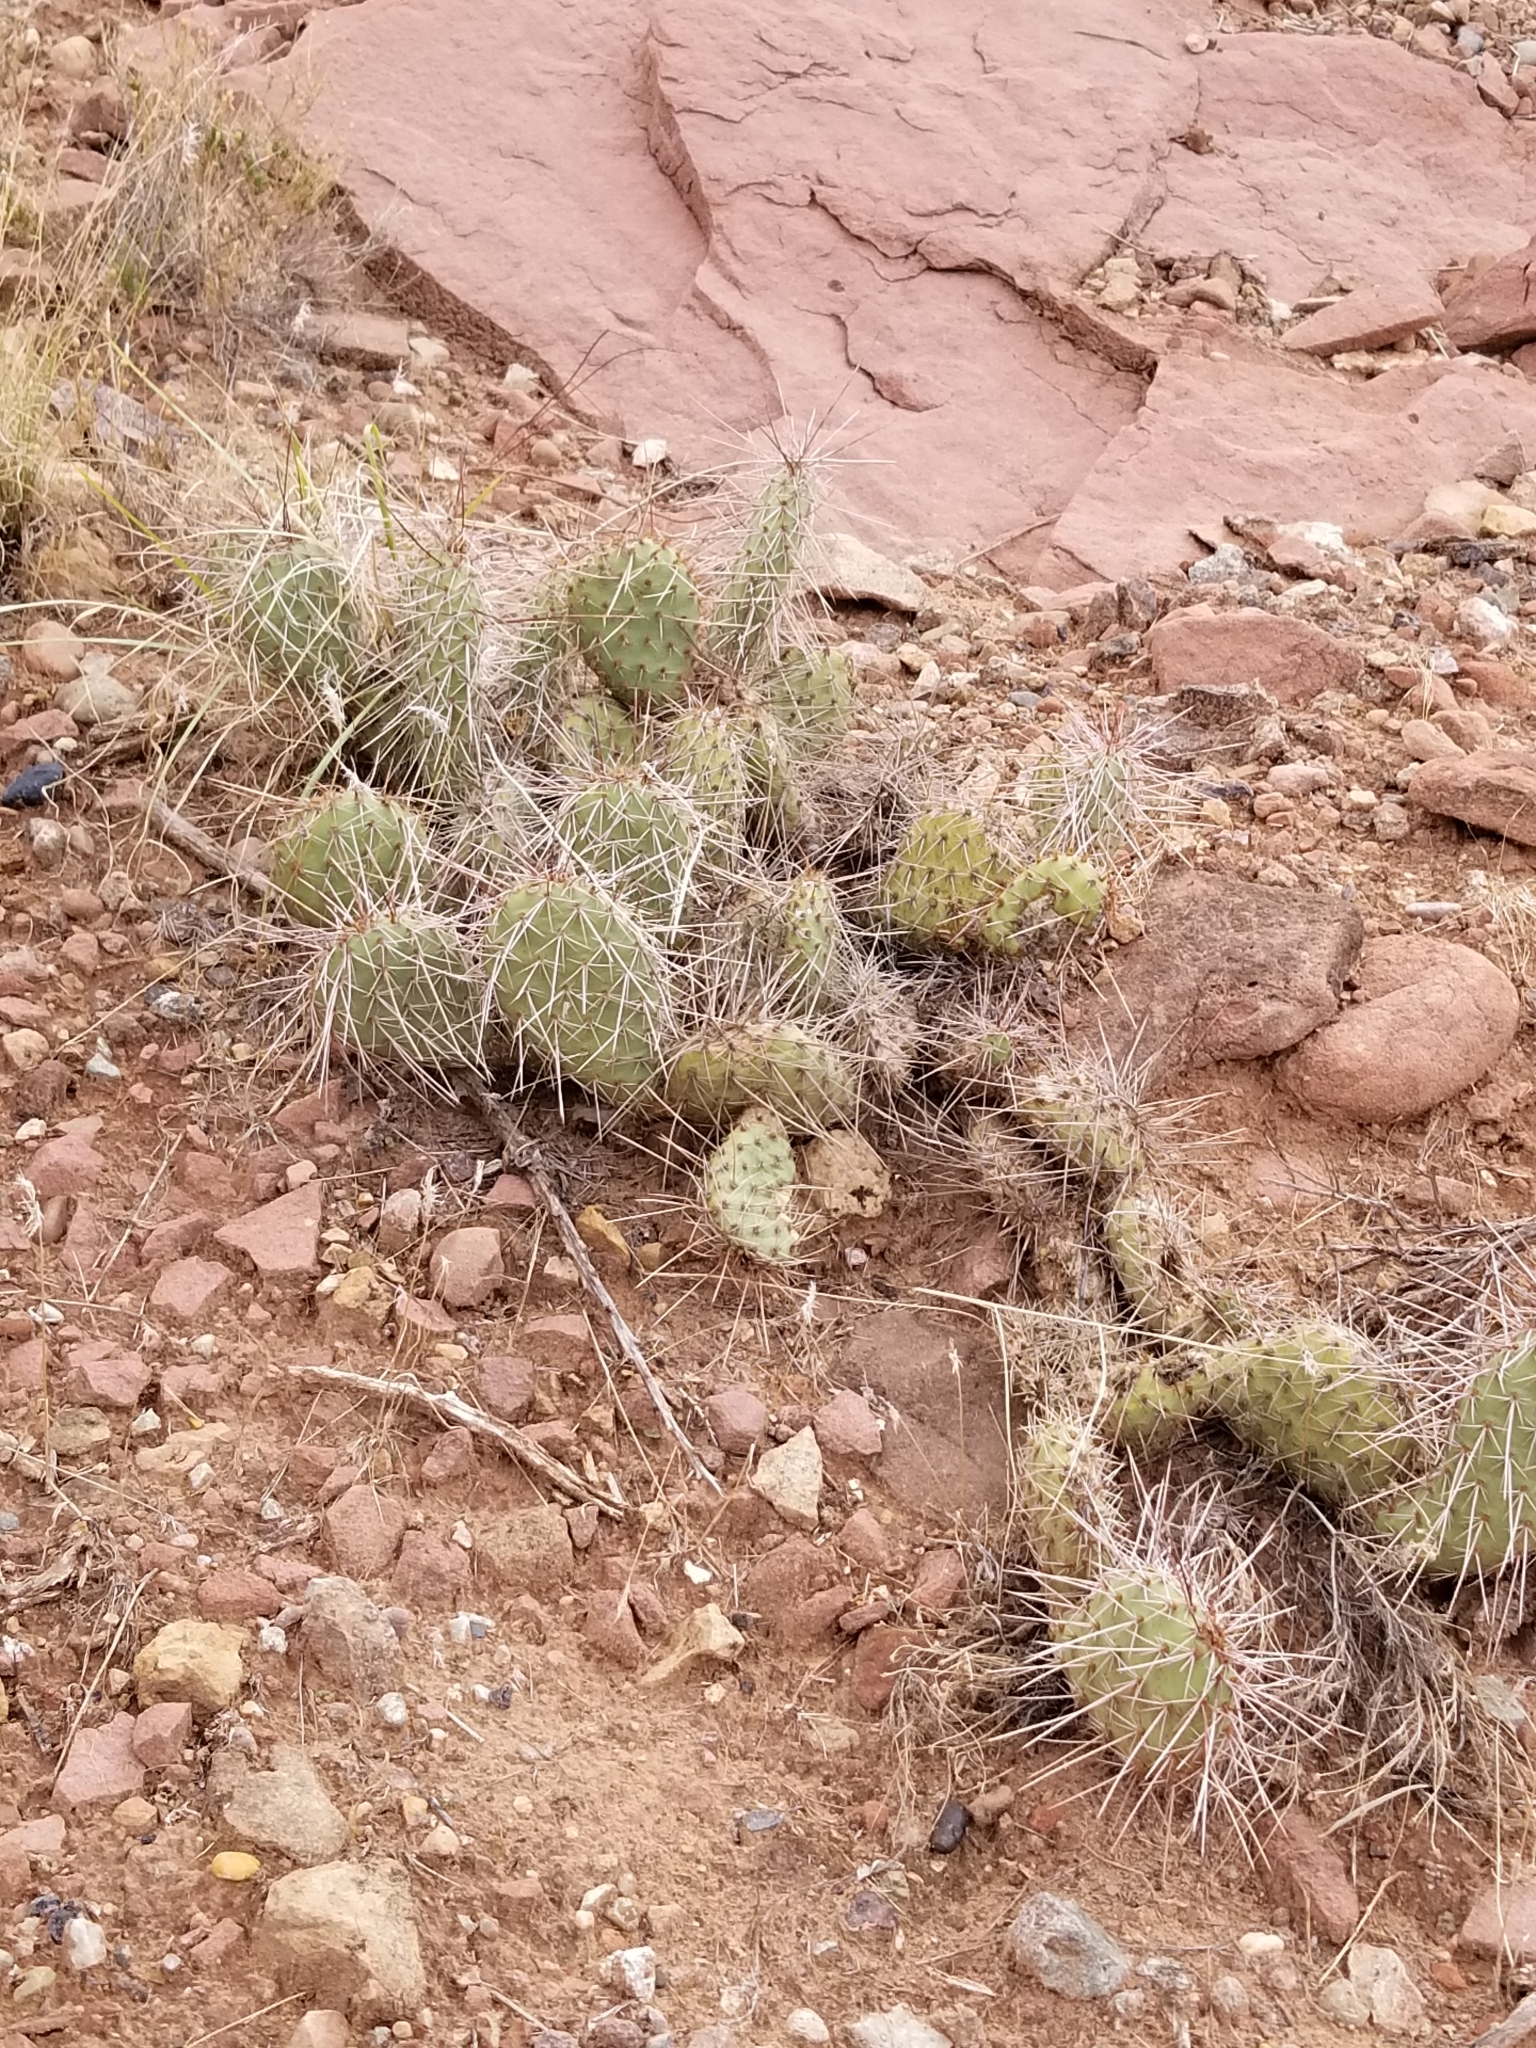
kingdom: Plantae
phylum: Tracheophyta
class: Magnoliopsida
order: Caryophyllales
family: Cactaceae
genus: Opuntia
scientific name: Opuntia polyacantha
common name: Plains prickly-pear
